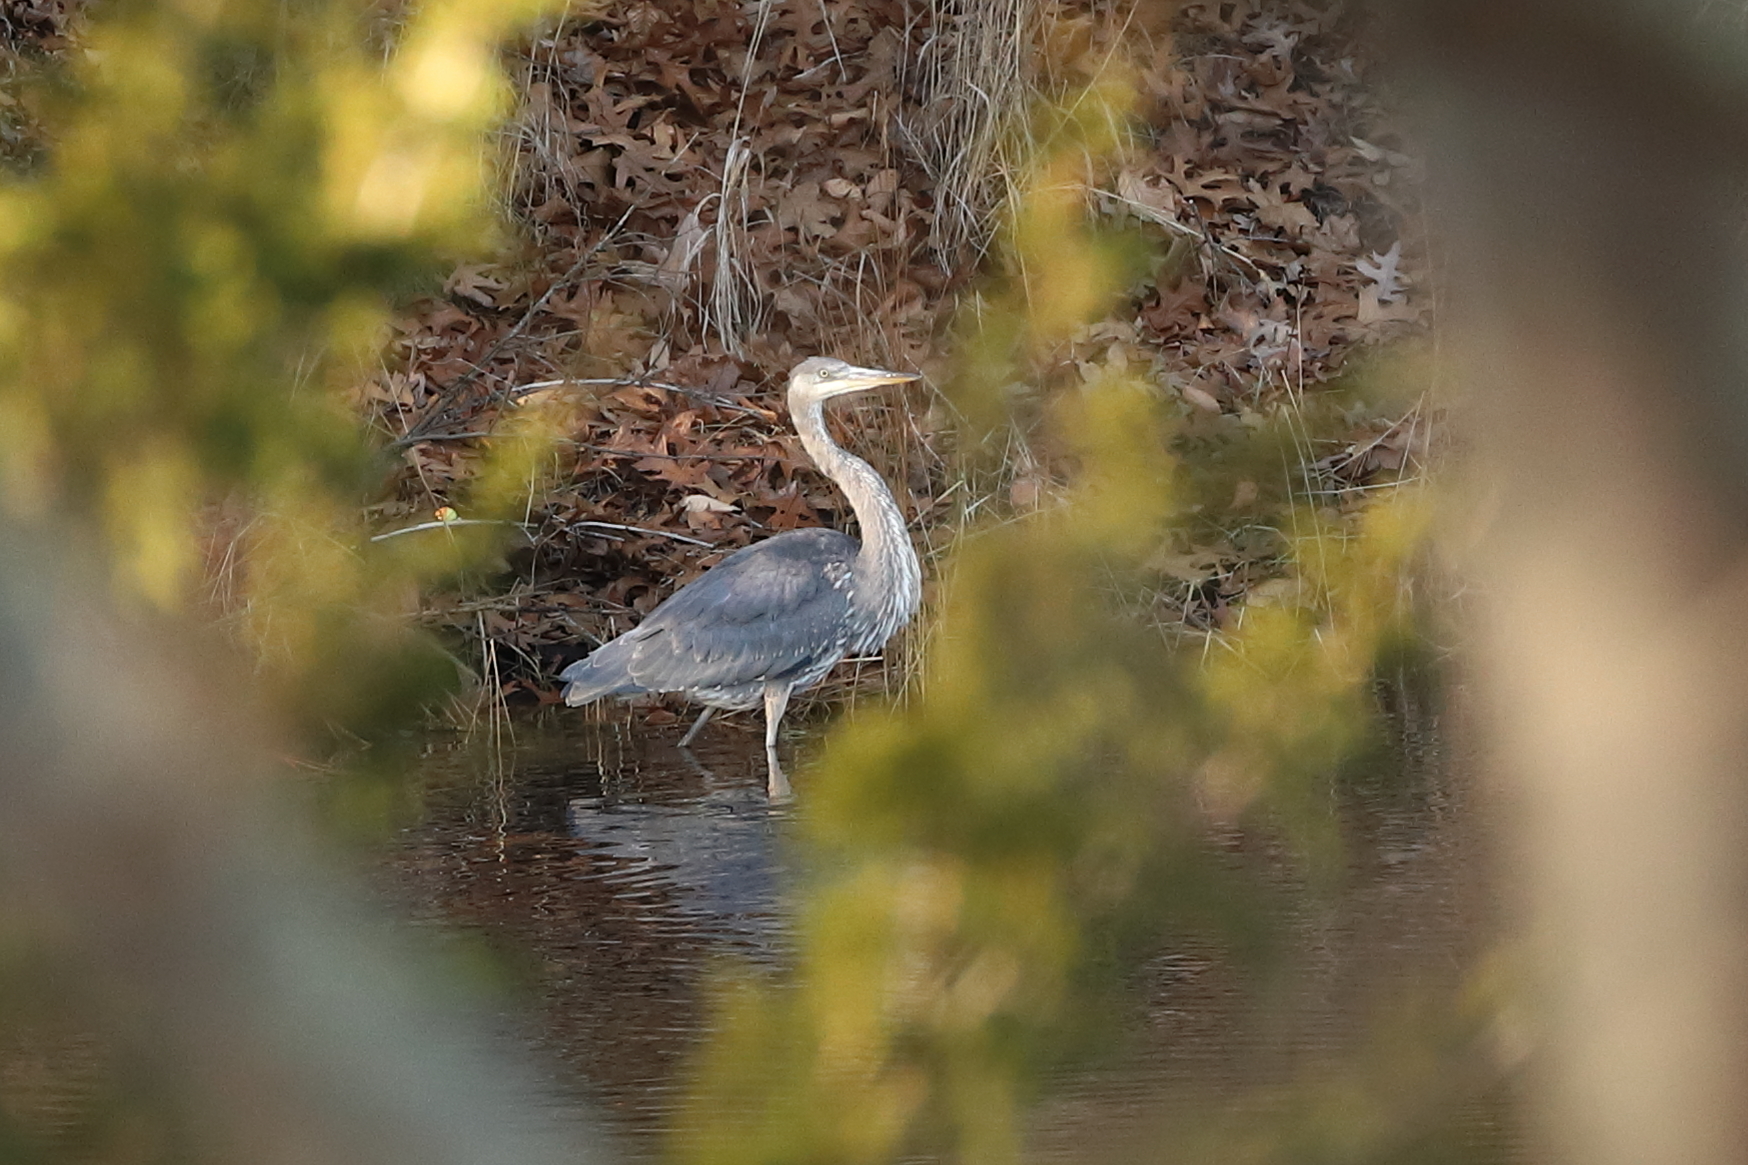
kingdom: Animalia
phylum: Chordata
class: Aves
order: Pelecaniformes
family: Ardeidae
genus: Ardea
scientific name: Ardea herodias
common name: Great blue heron
